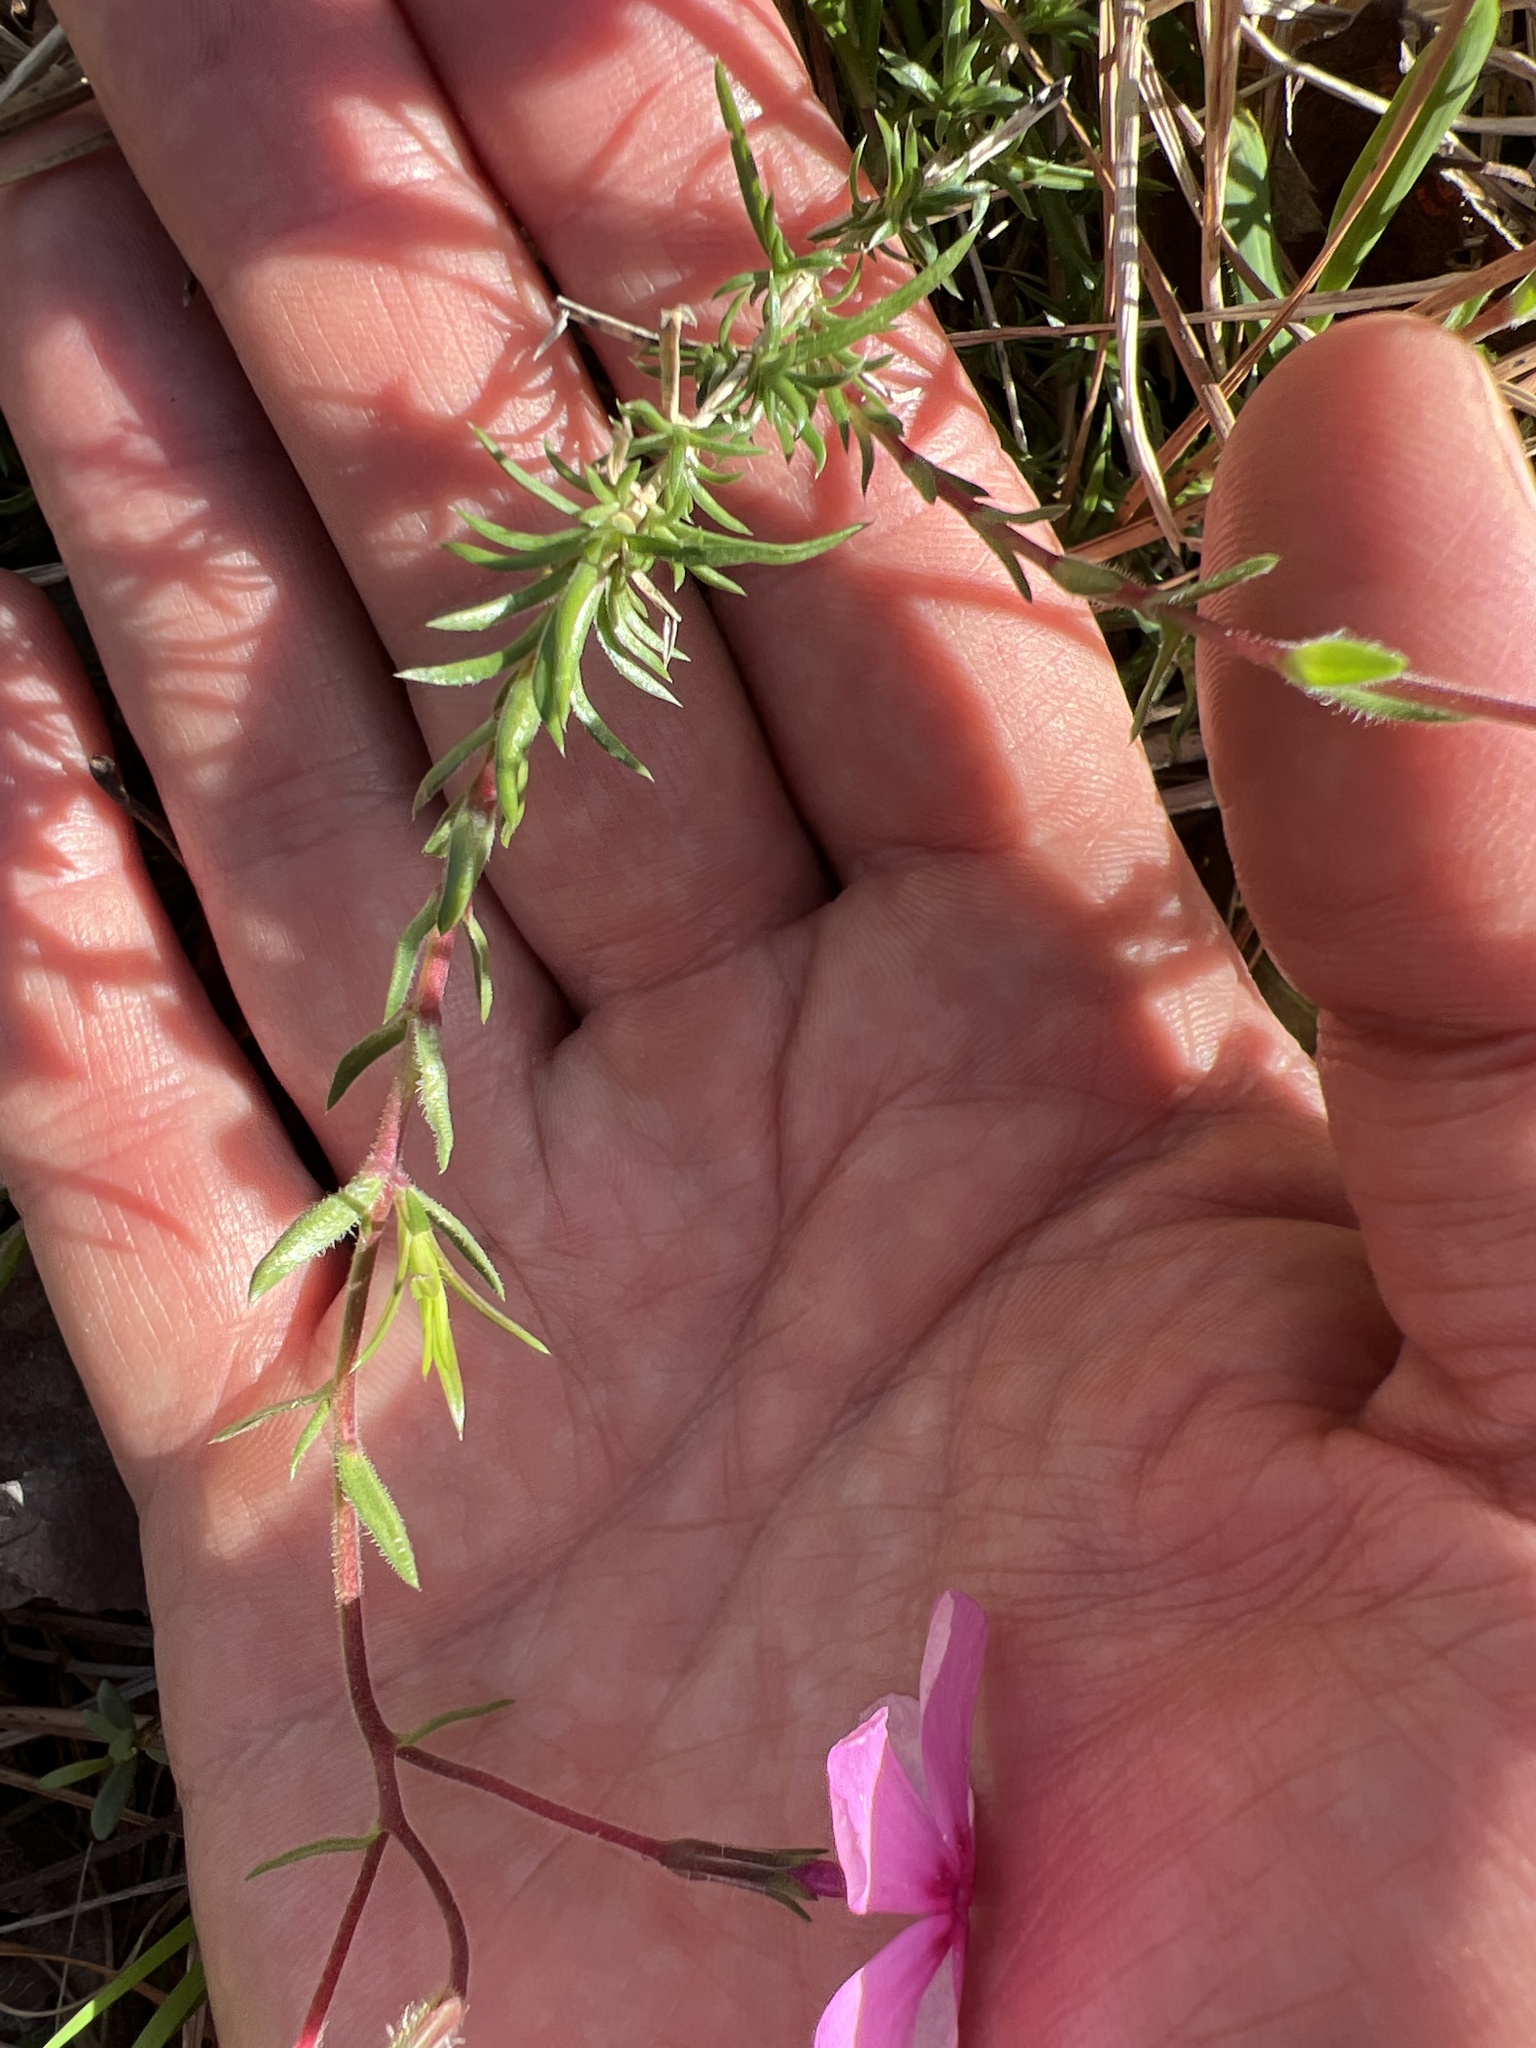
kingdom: Plantae
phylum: Tracheophyta
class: Magnoliopsida
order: Ericales
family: Polemoniaceae
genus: Phlox
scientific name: Phlox nivalis
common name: Trailing phlox
